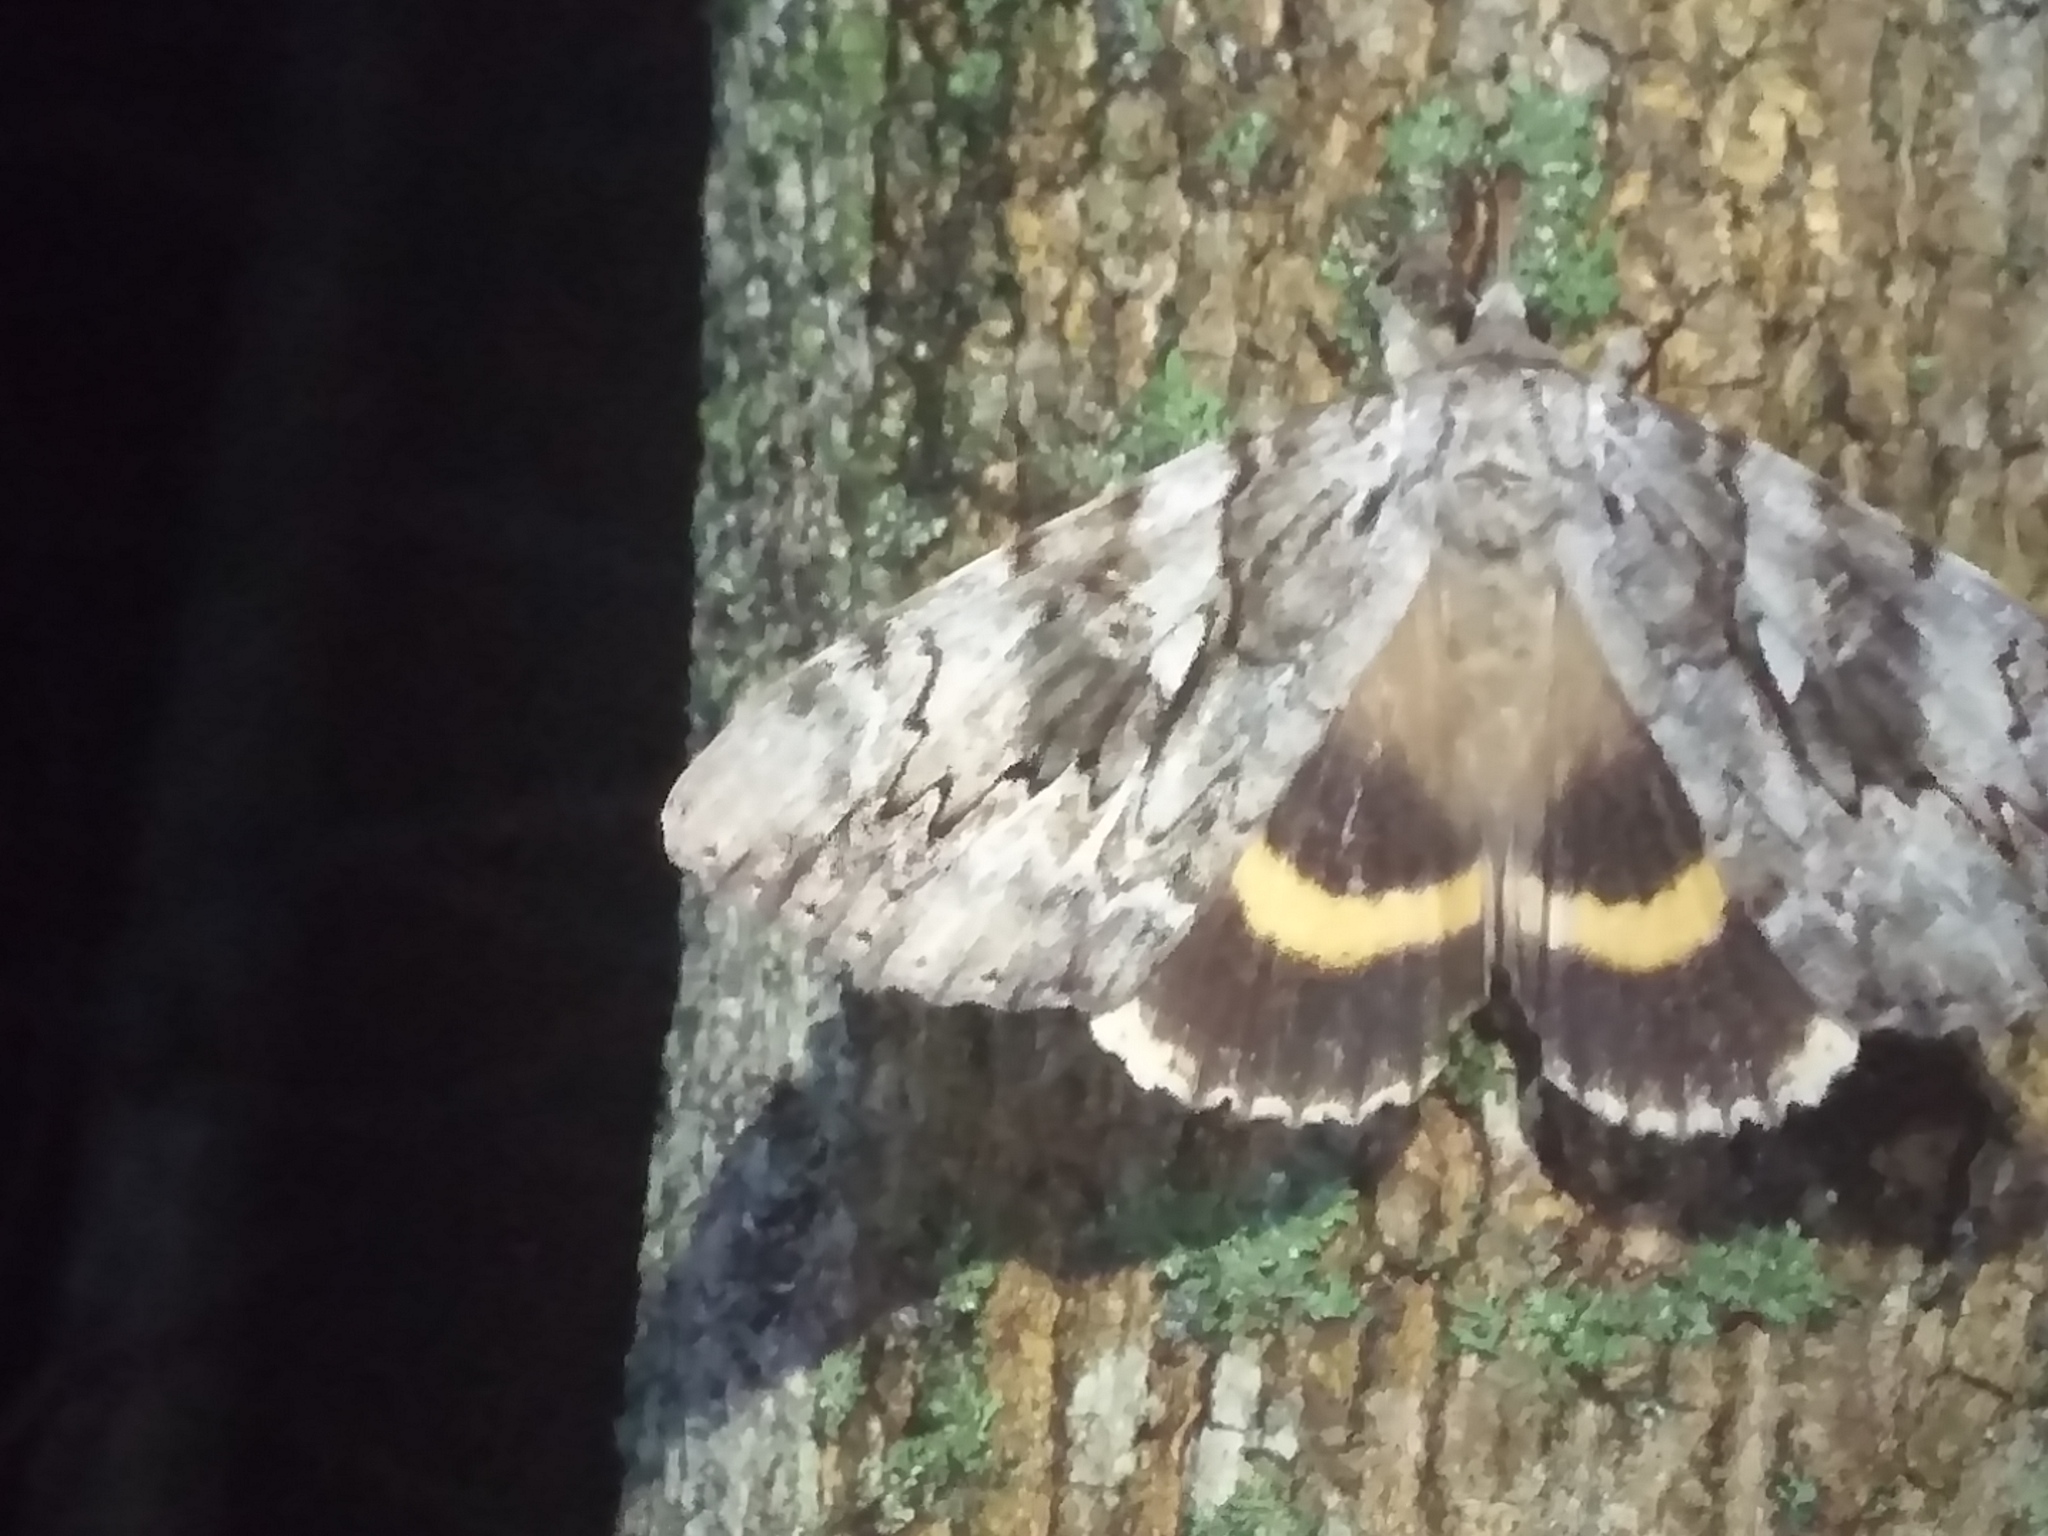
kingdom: Animalia
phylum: Arthropoda
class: Insecta
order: Lepidoptera
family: Erebidae
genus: Catocala
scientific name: Catocala cerogama
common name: Yellow banded underwing
